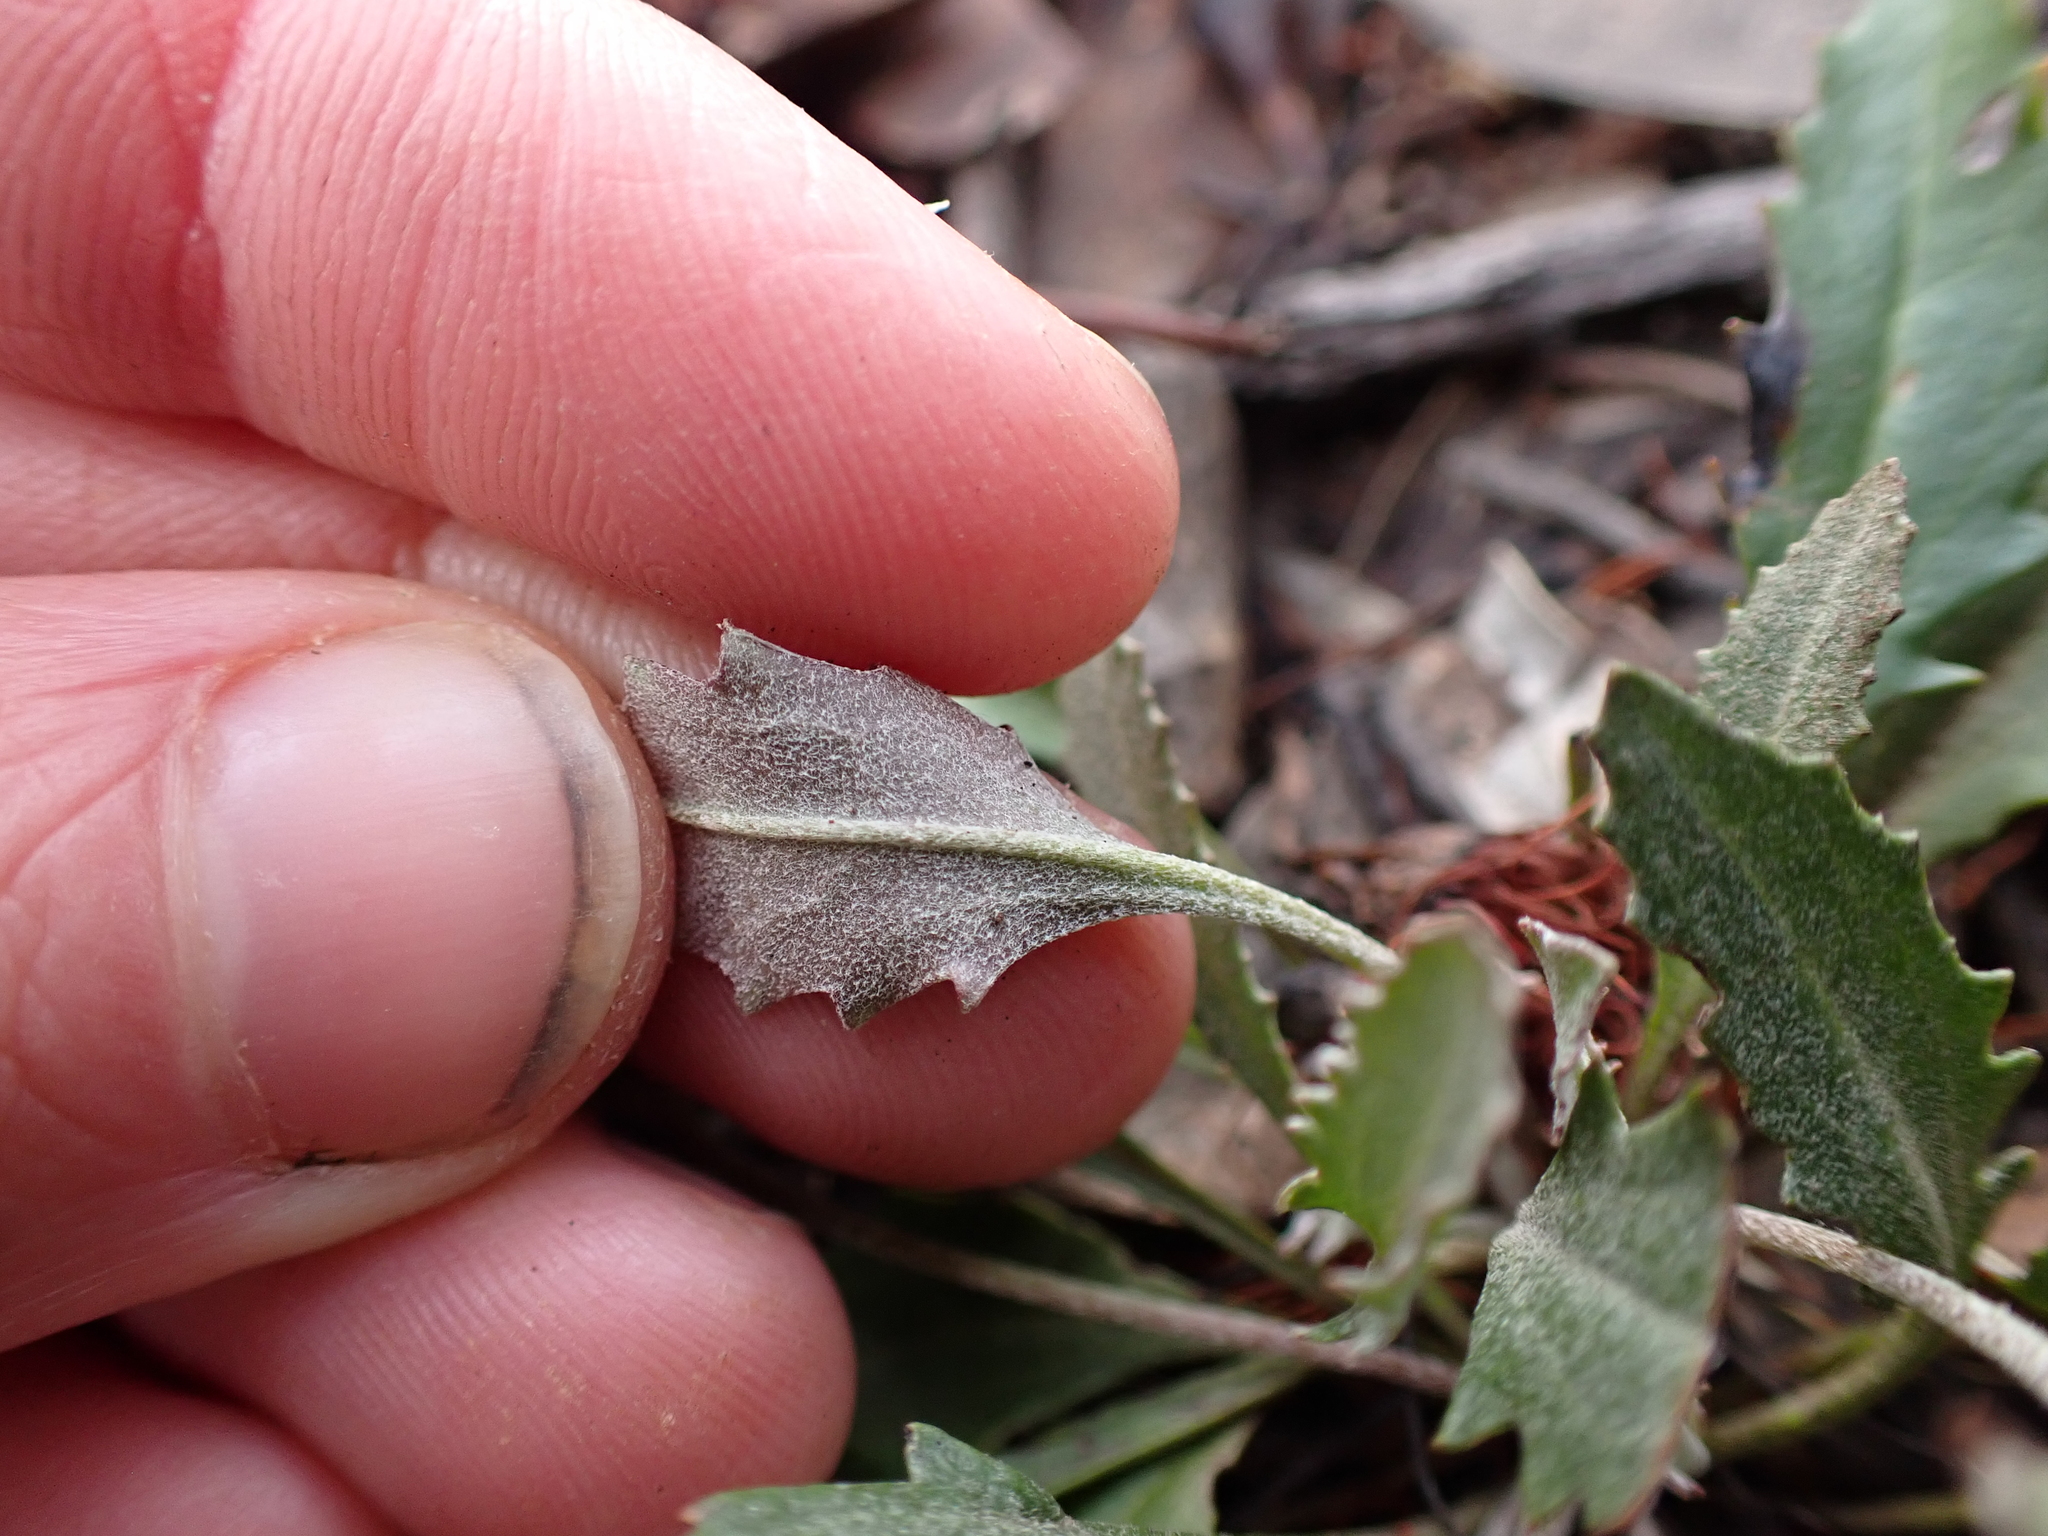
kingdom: Plantae
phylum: Tracheophyta
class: Magnoliopsida
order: Asterales
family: Goodeniaceae
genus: Goodenia
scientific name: Goodenia blackiana
